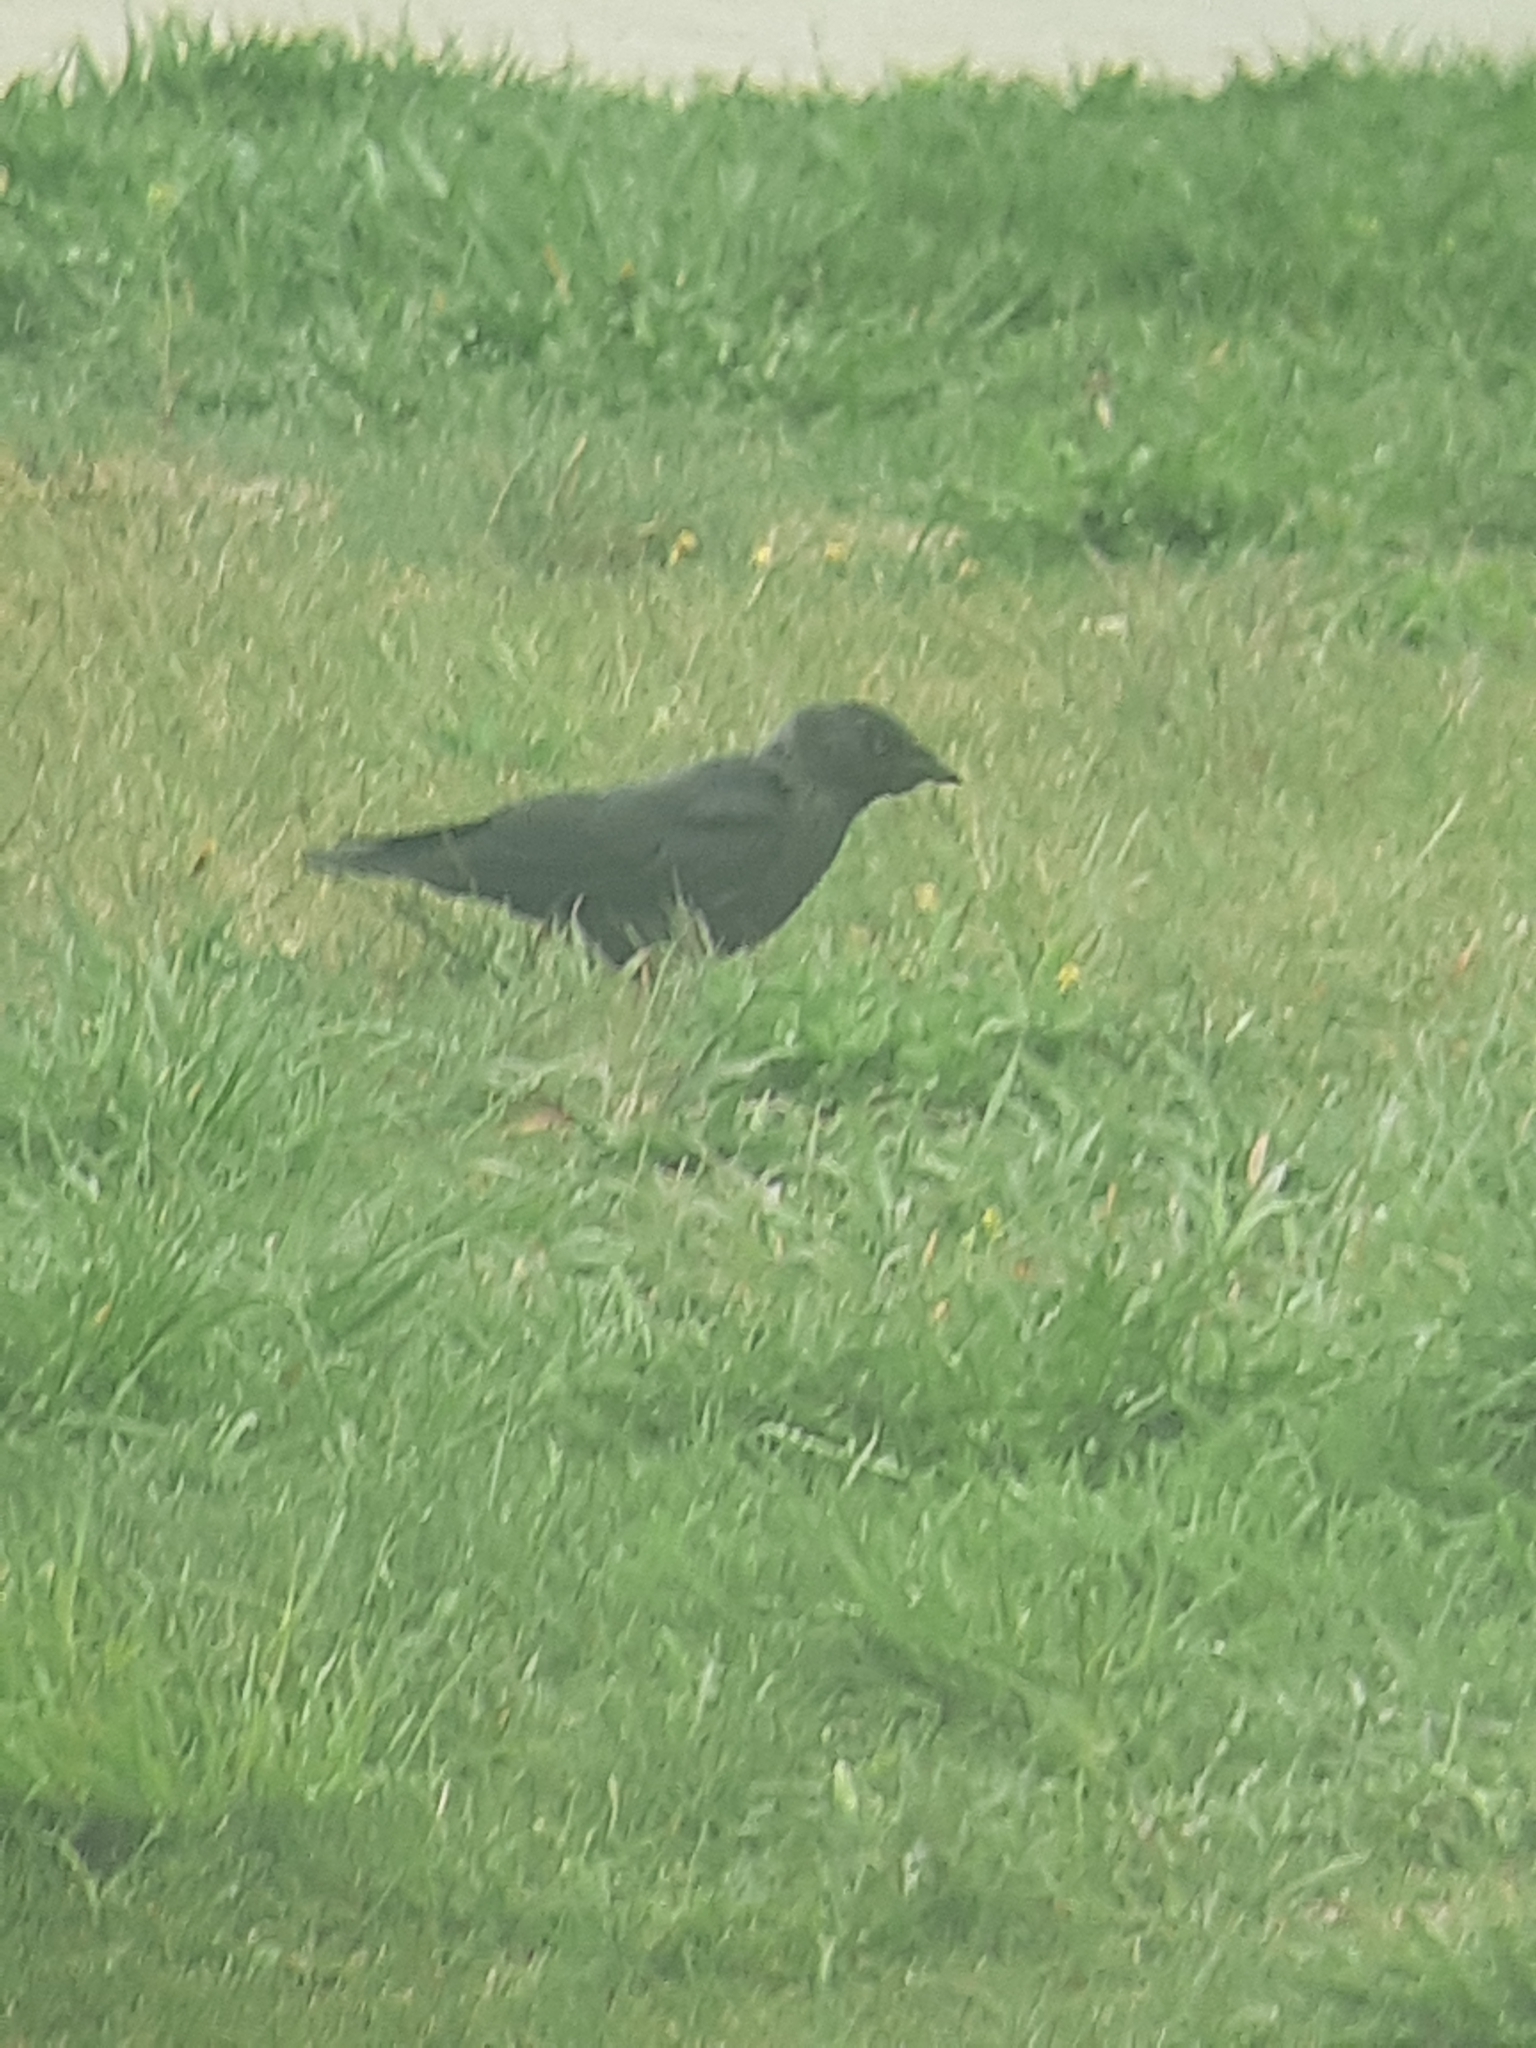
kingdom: Animalia
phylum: Chordata
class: Aves
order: Passeriformes
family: Corvidae
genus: Coloeus
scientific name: Coloeus monedula
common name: Western jackdaw
